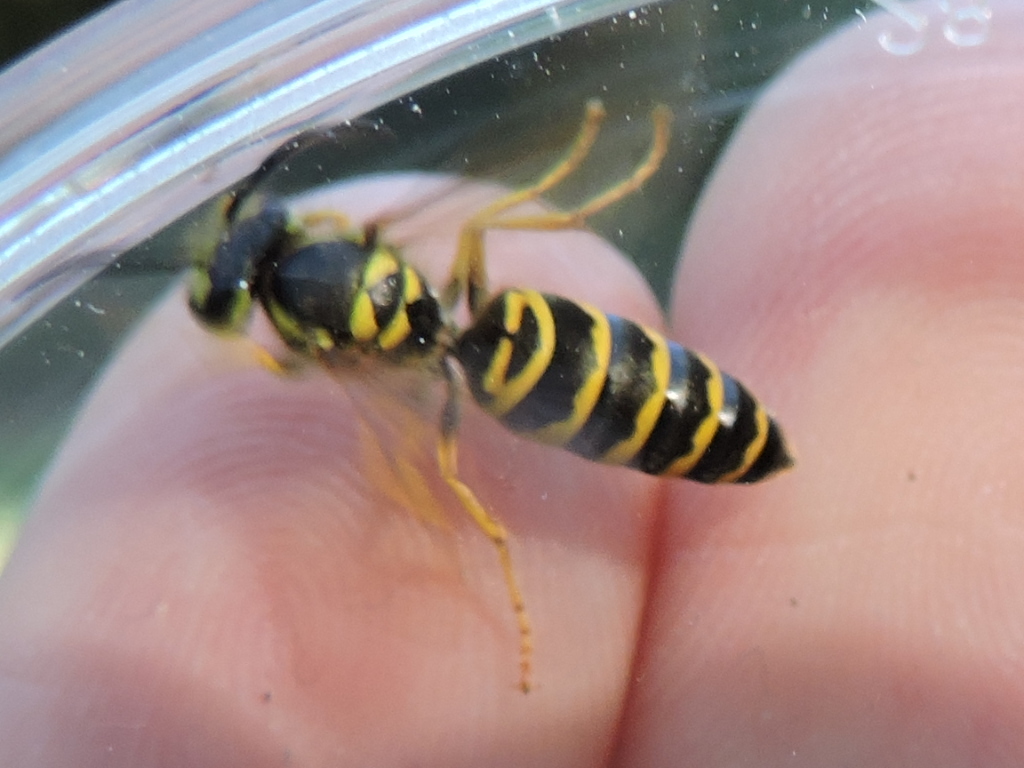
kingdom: Animalia
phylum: Arthropoda
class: Insecta
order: Hymenoptera
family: Vespidae
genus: Vespula
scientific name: Vespula maculifrons
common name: Eastern yellowjacket
